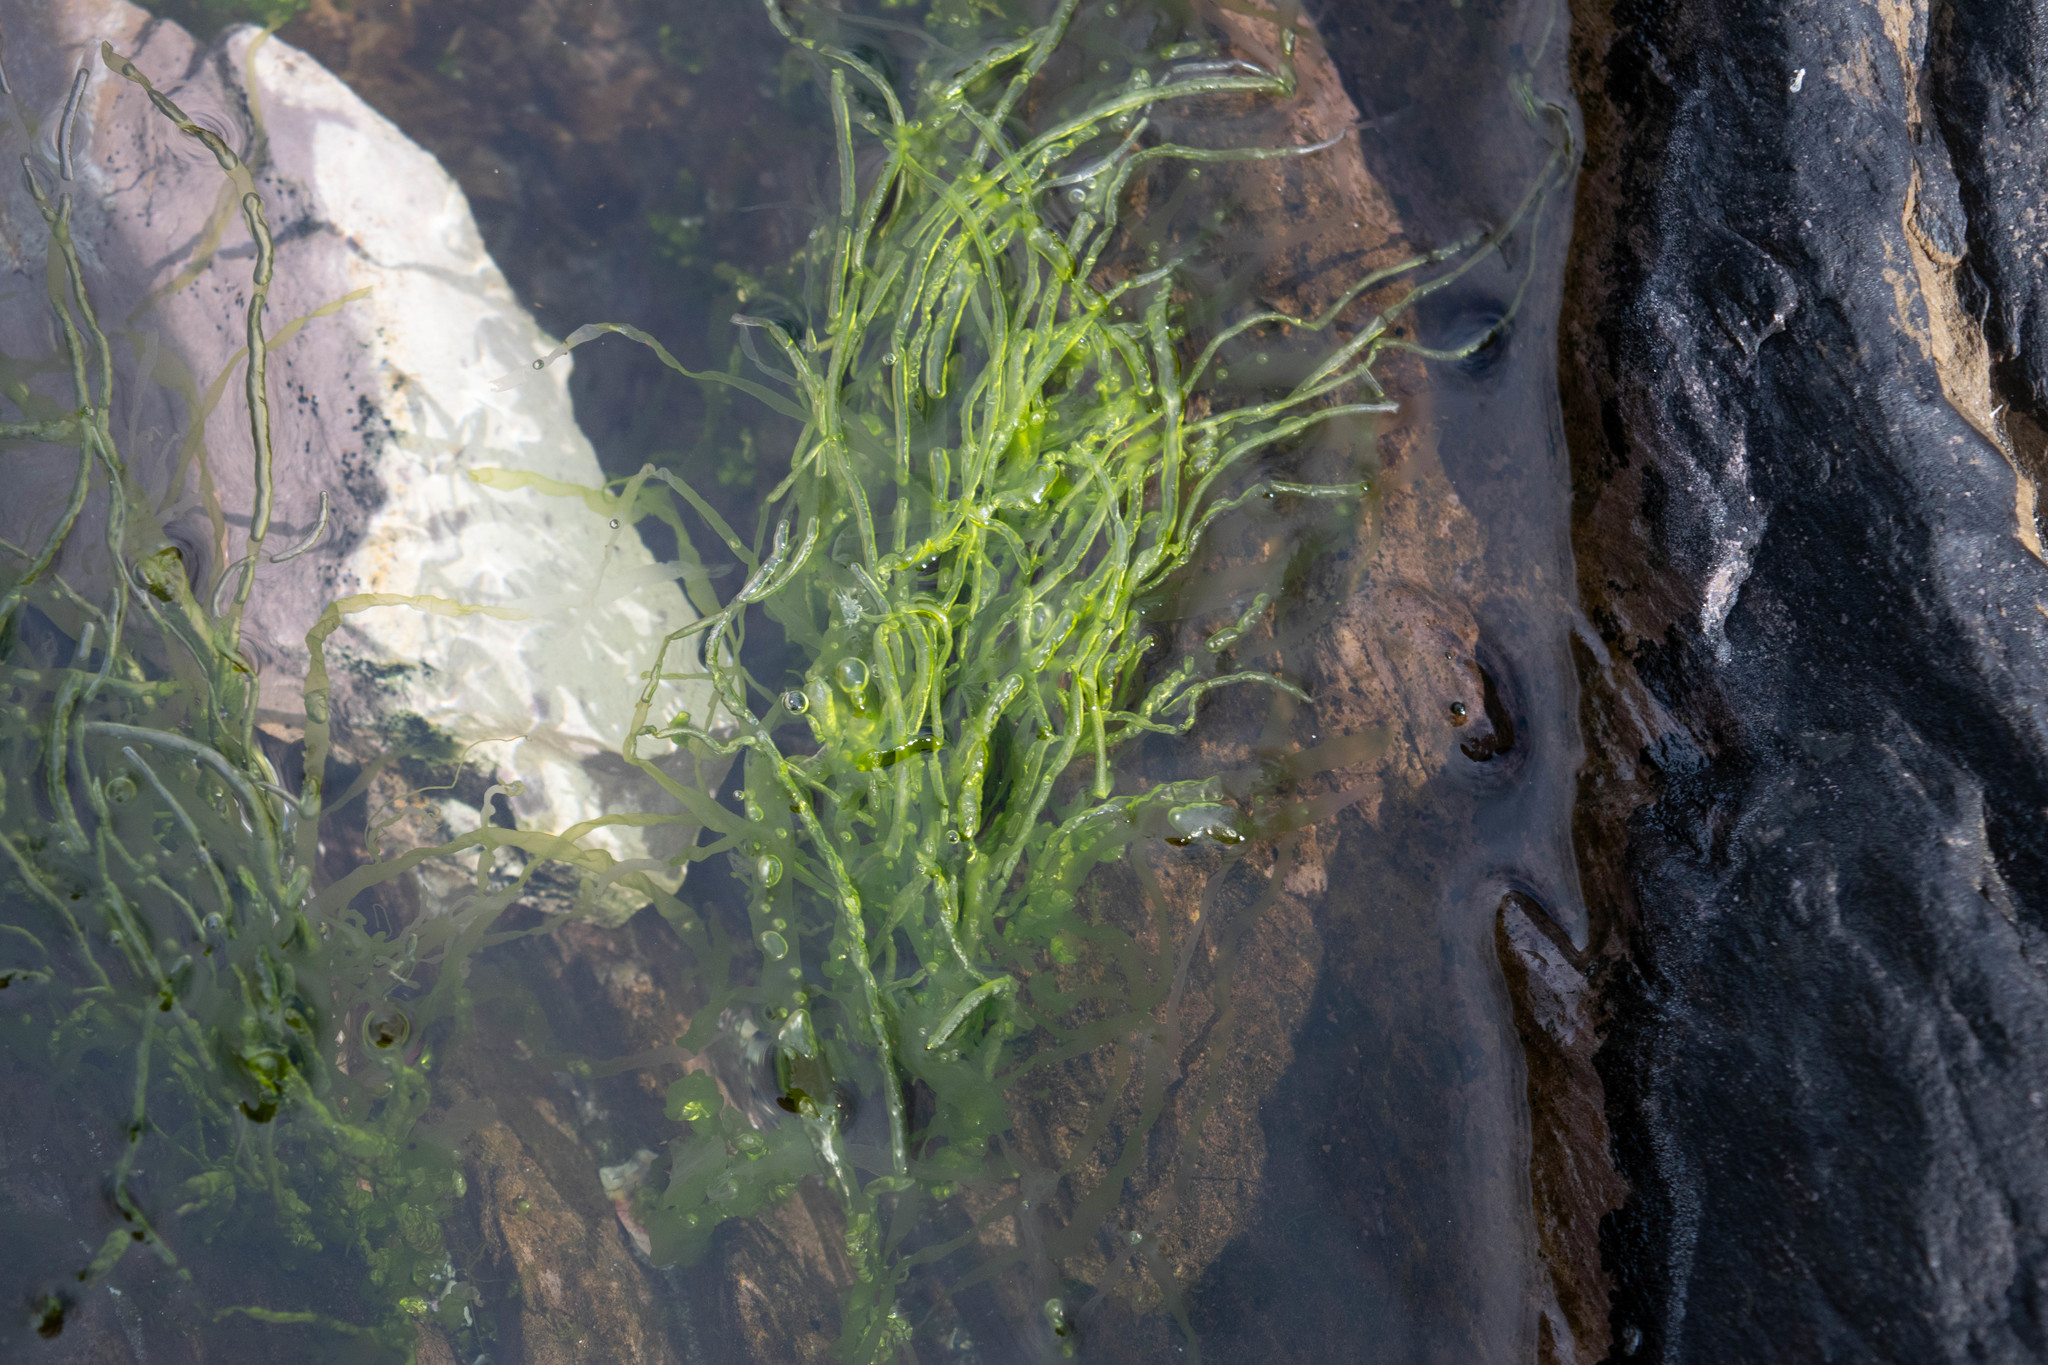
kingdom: Plantae
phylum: Chlorophyta
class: Ulvophyceae
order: Ulvales
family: Ulvaceae
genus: Ulva
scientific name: Ulva intestinalis
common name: Gut weed
